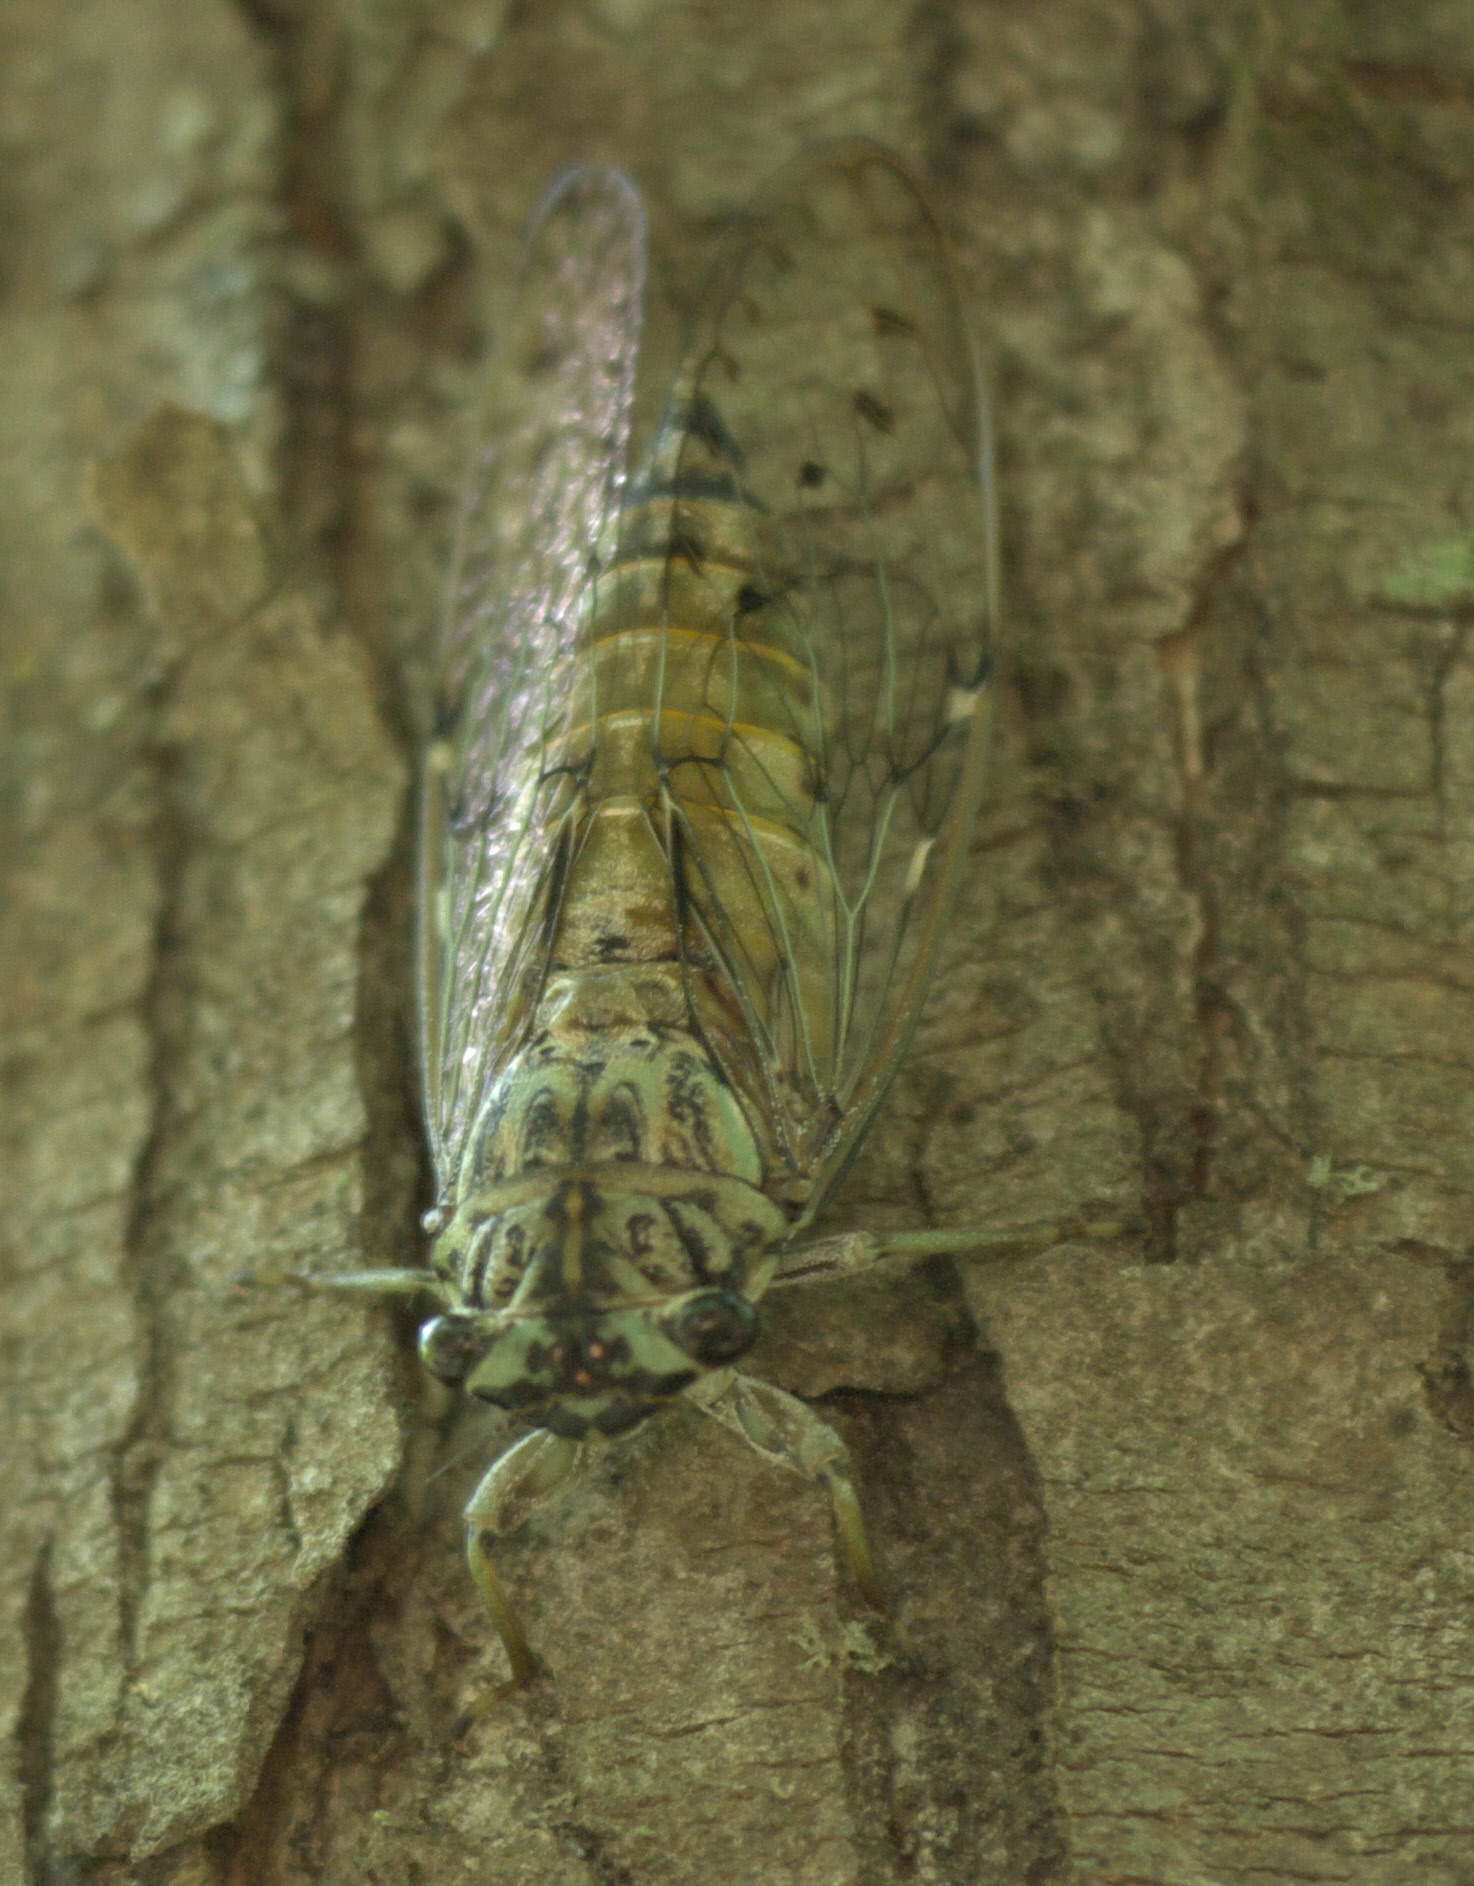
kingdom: Animalia
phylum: Arthropoda
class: Insecta
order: Hemiptera
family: Cicadidae
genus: Neocicada
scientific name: Neocicada hieroglyphica
